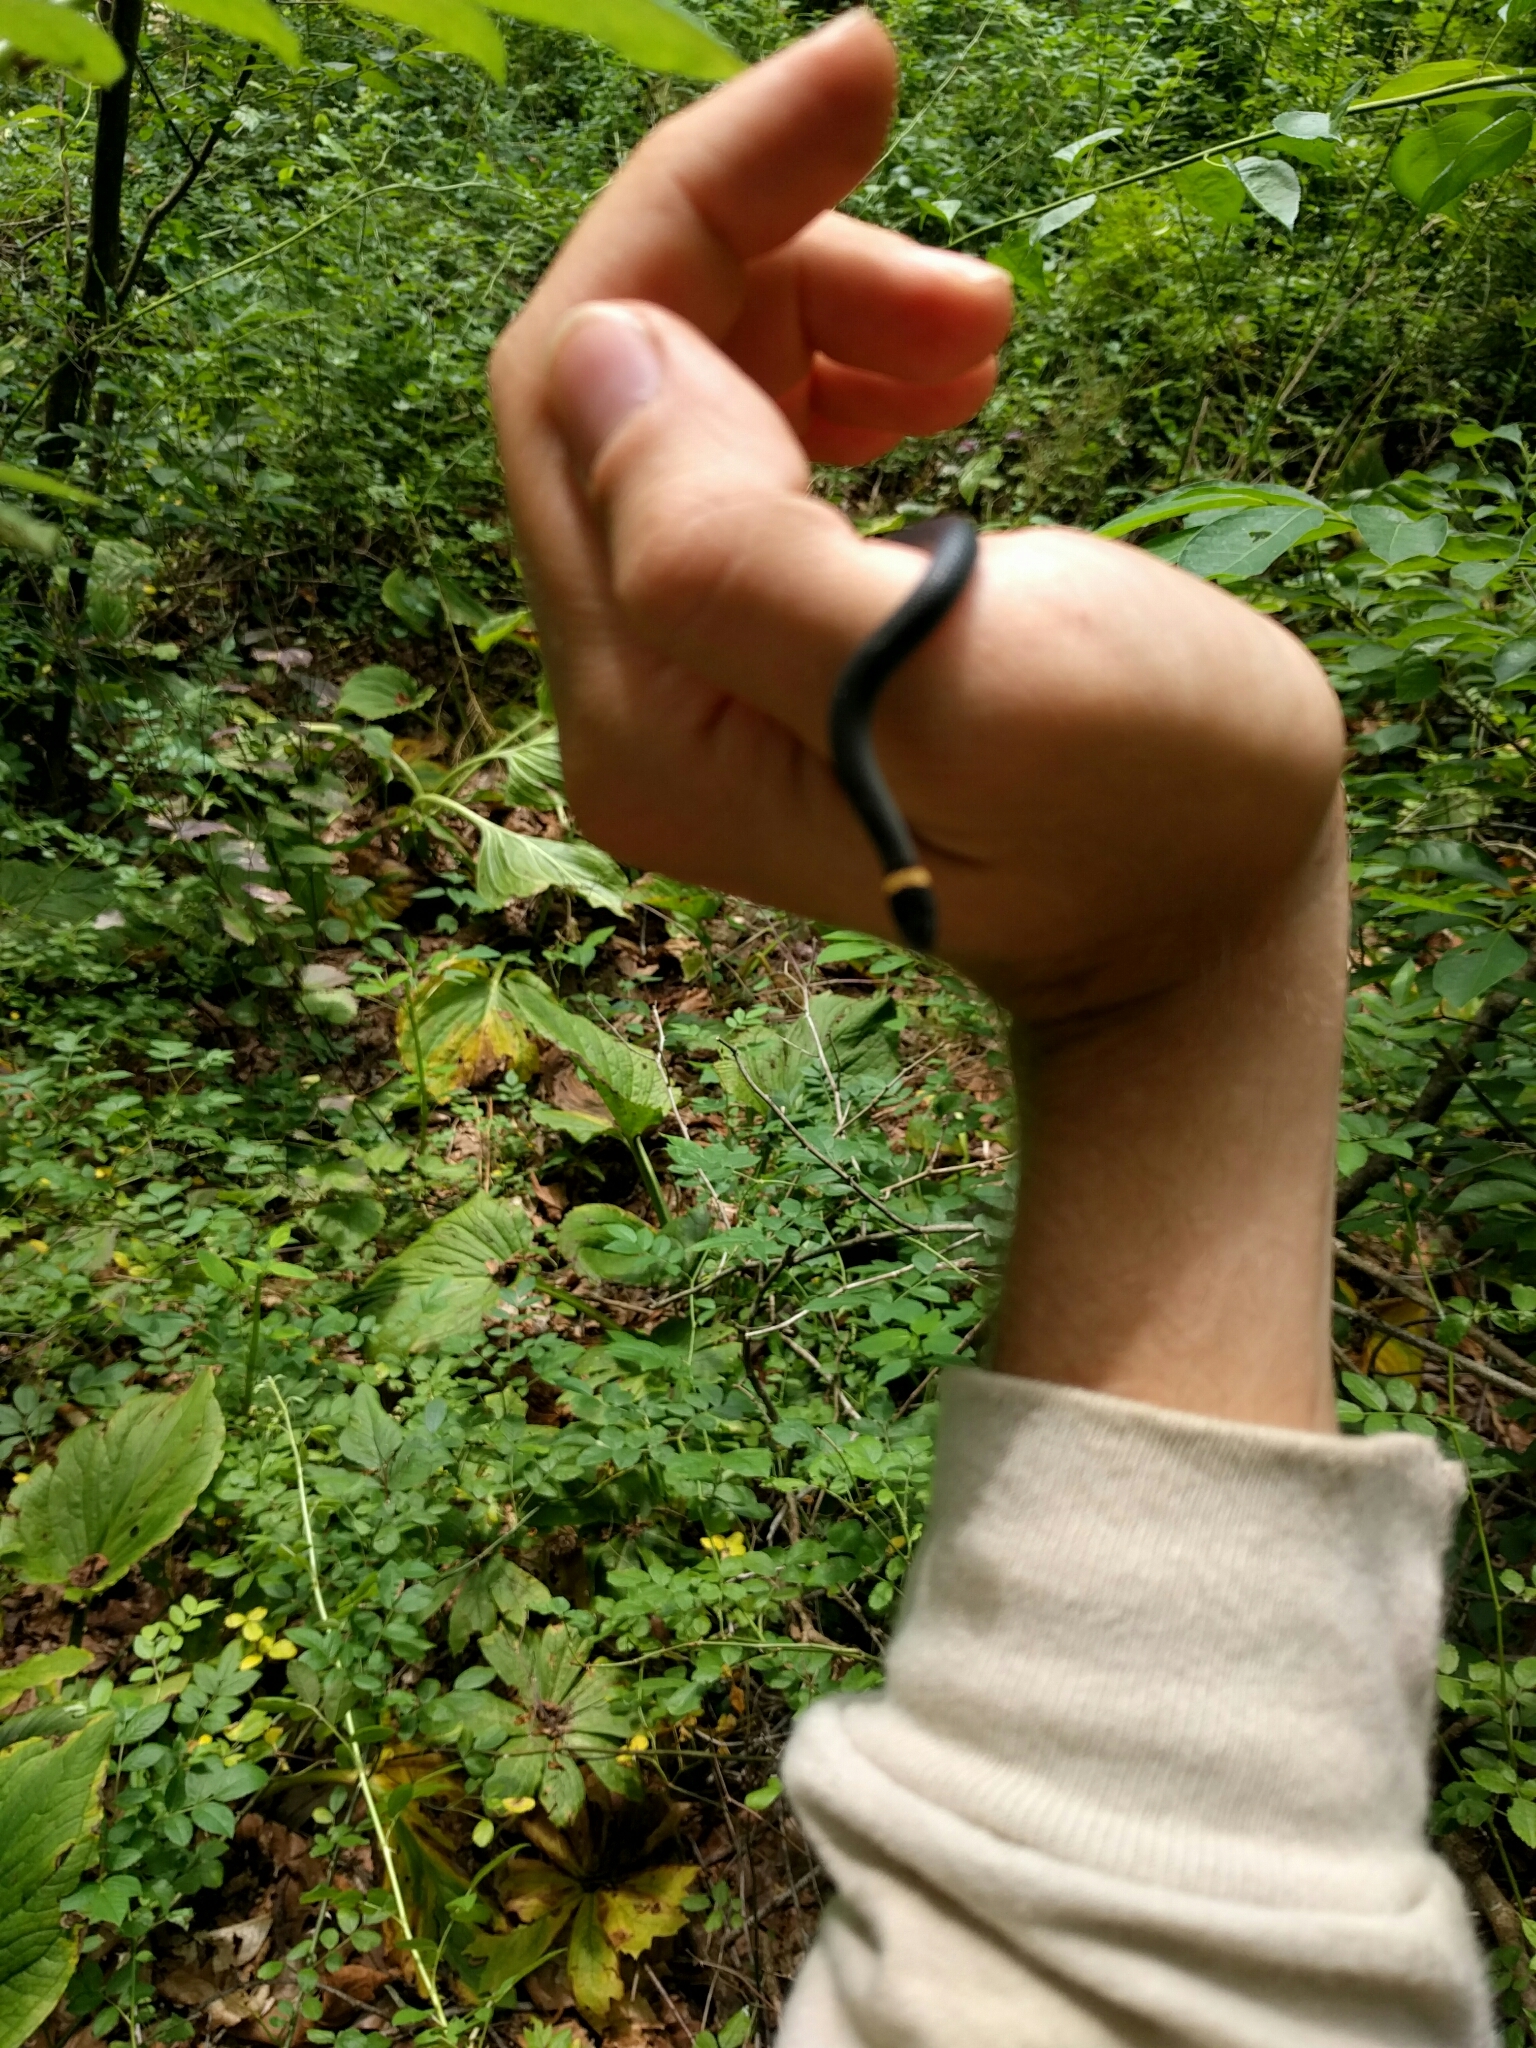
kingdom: Animalia
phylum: Chordata
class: Squamata
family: Colubridae
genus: Diadophis
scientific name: Diadophis punctatus
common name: Ringneck snake
